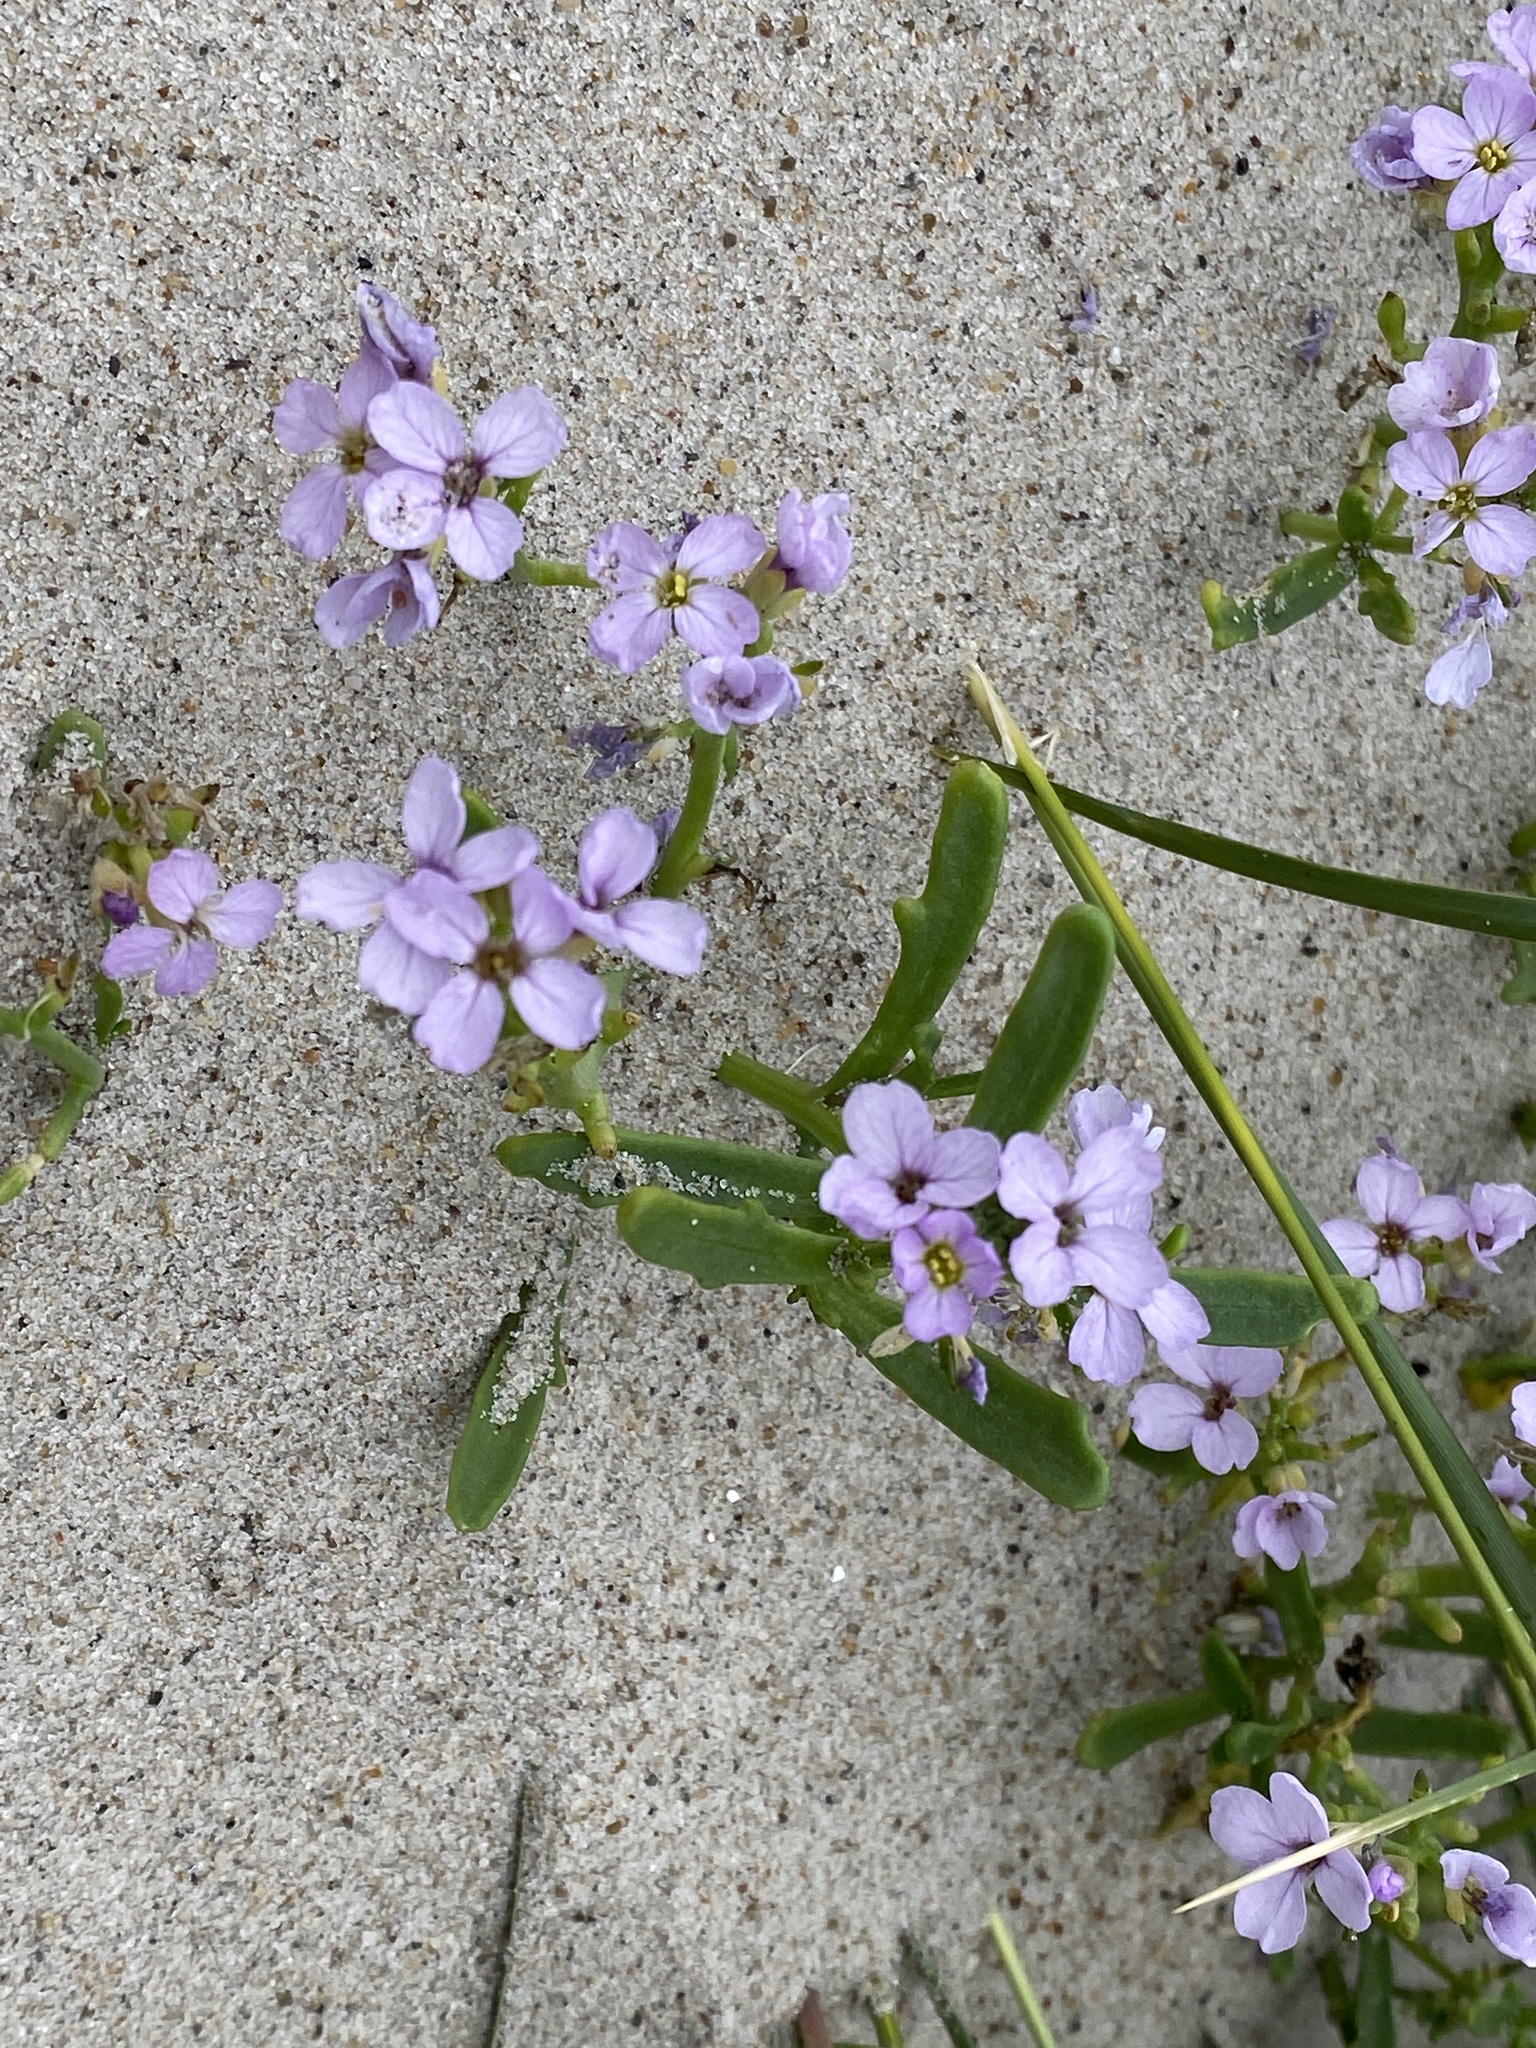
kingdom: Plantae
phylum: Tracheophyta
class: Magnoliopsida
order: Brassicales
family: Brassicaceae
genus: Cakile
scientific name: Cakile maritima
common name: Sea rocket
